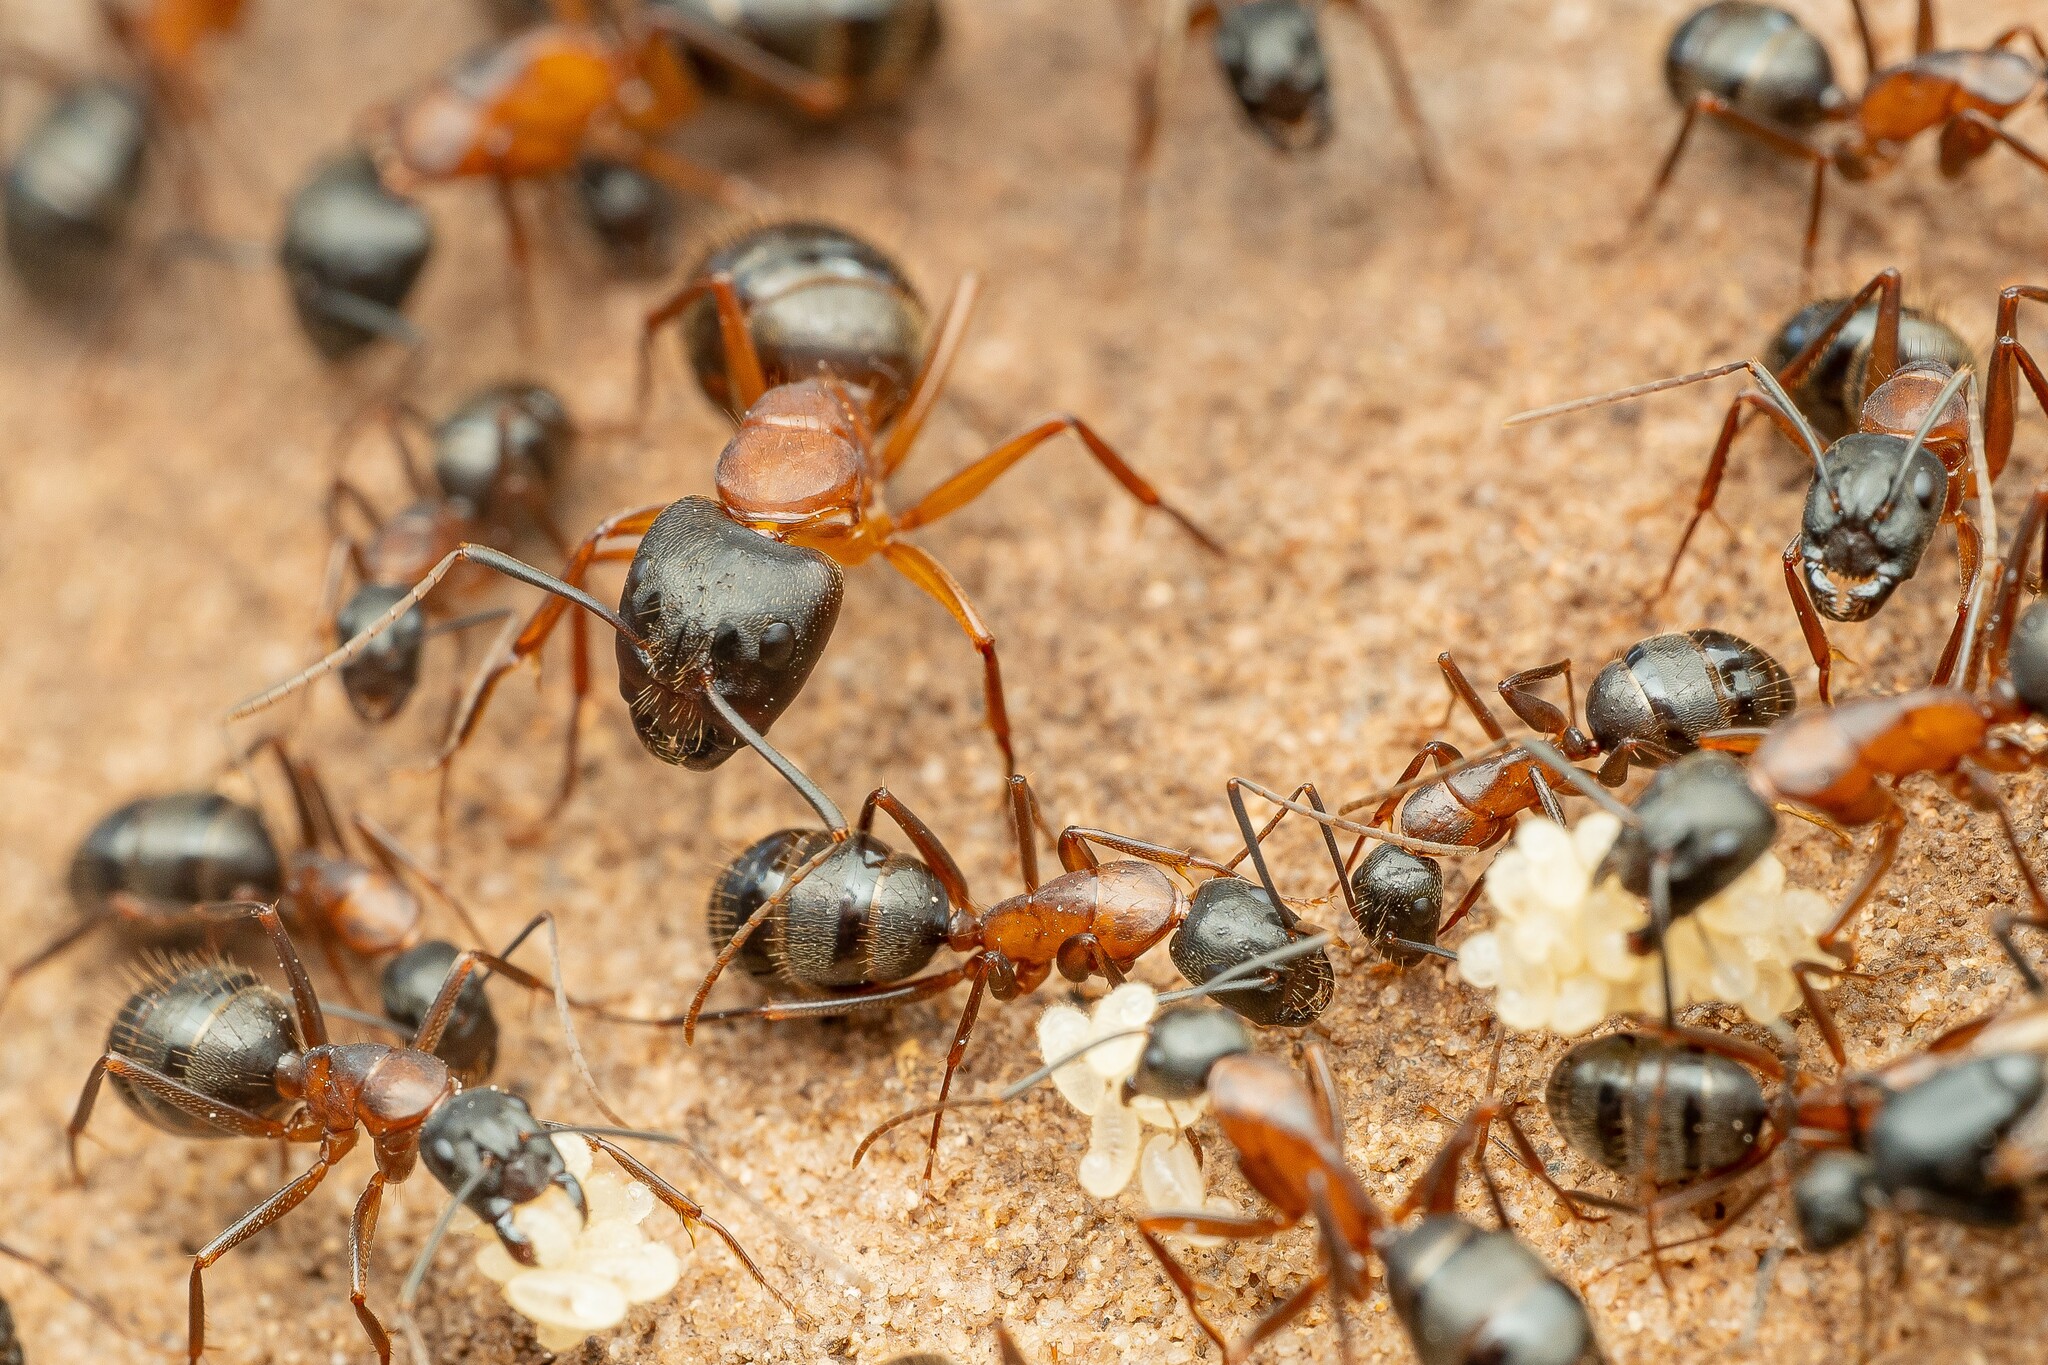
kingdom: Animalia
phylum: Arthropoda
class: Insecta
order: Hymenoptera
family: Formicidae
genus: Camponotus
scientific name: Camponotus semitestaceus
